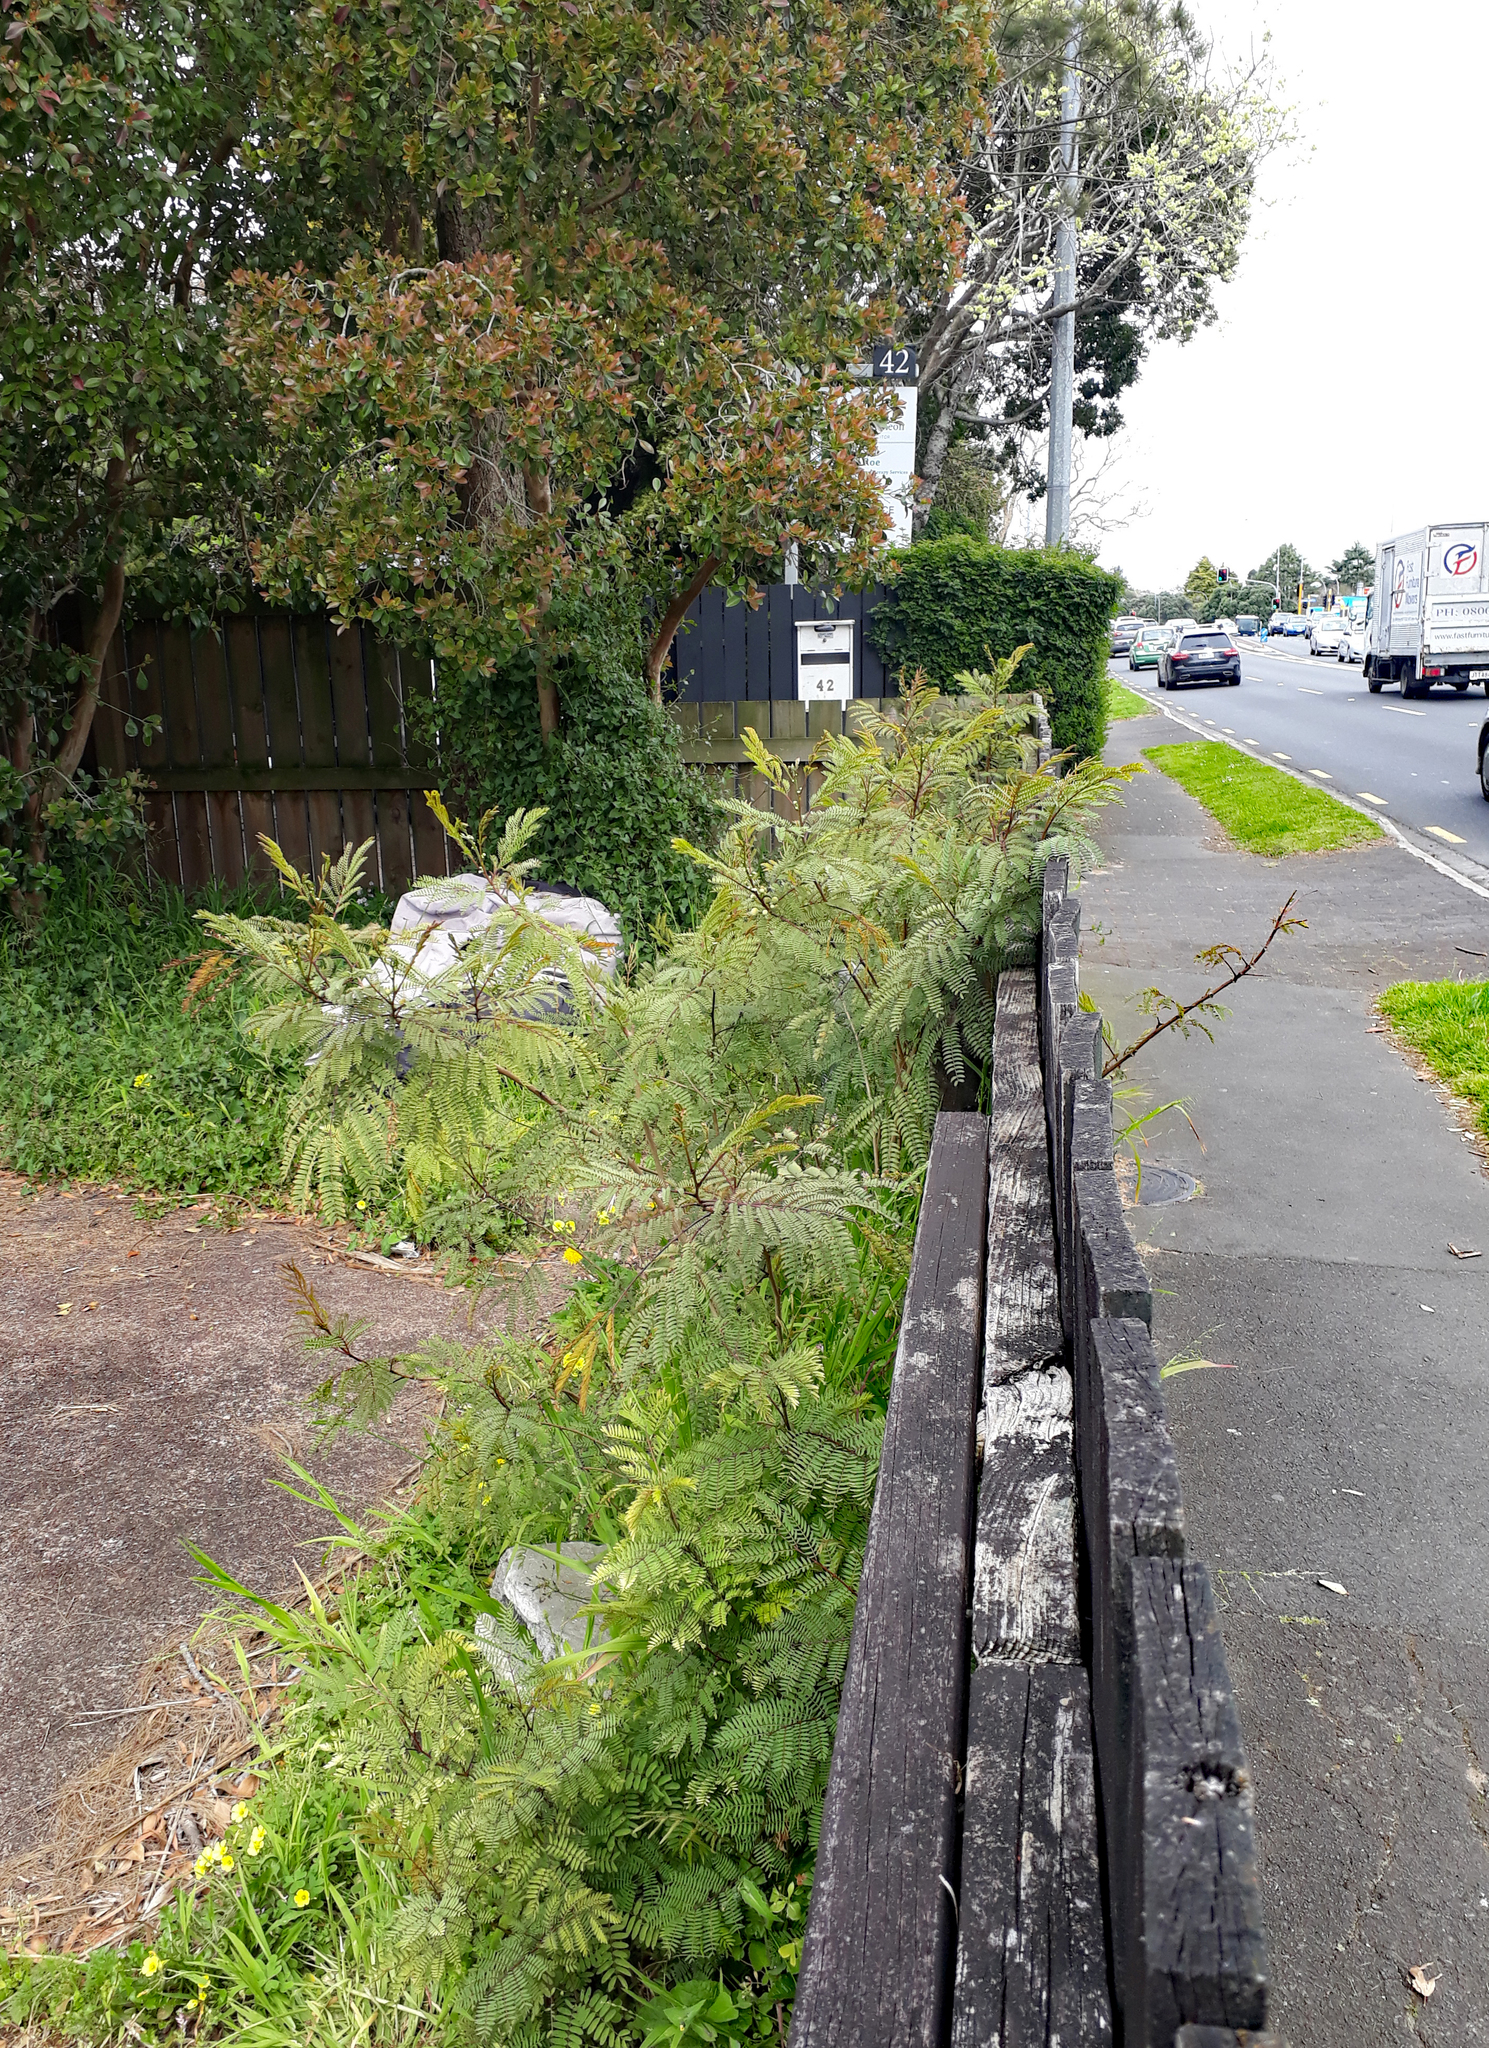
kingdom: Plantae
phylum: Tracheophyta
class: Magnoliopsida
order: Fabales
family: Fabaceae
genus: Leucaena
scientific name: Leucaena leucocephala
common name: White leadtree
